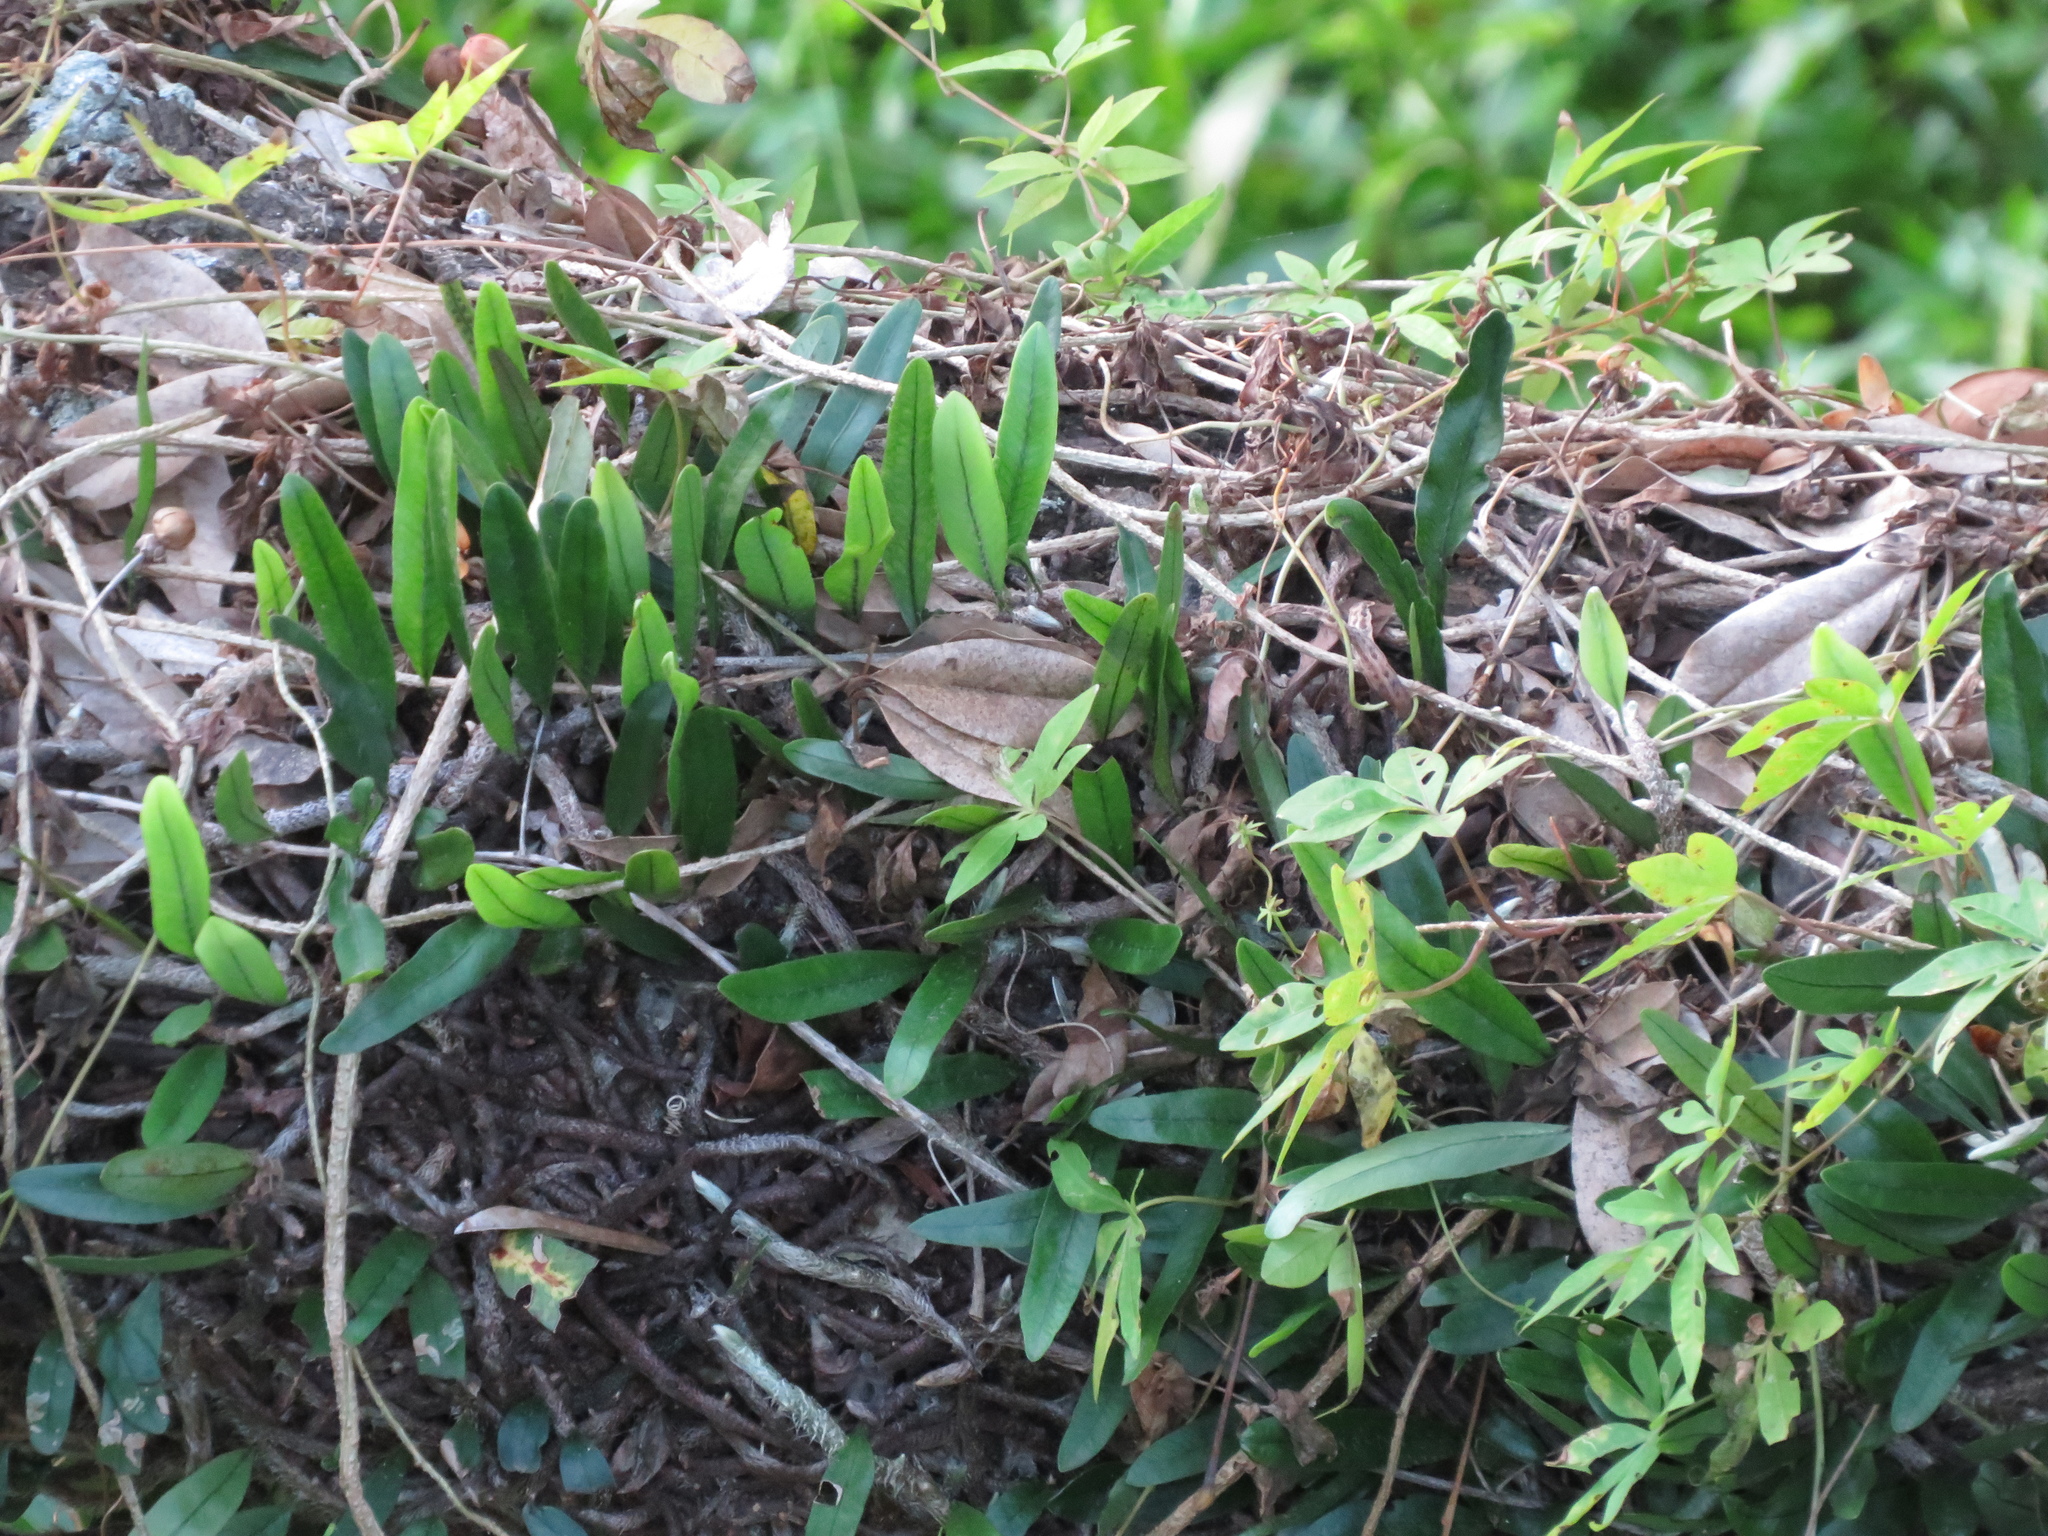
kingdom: Plantae
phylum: Tracheophyta
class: Polypodiopsida
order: Polypodiales
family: Polypodiaceae
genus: Microgramma
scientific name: Microgramma mortoniana
